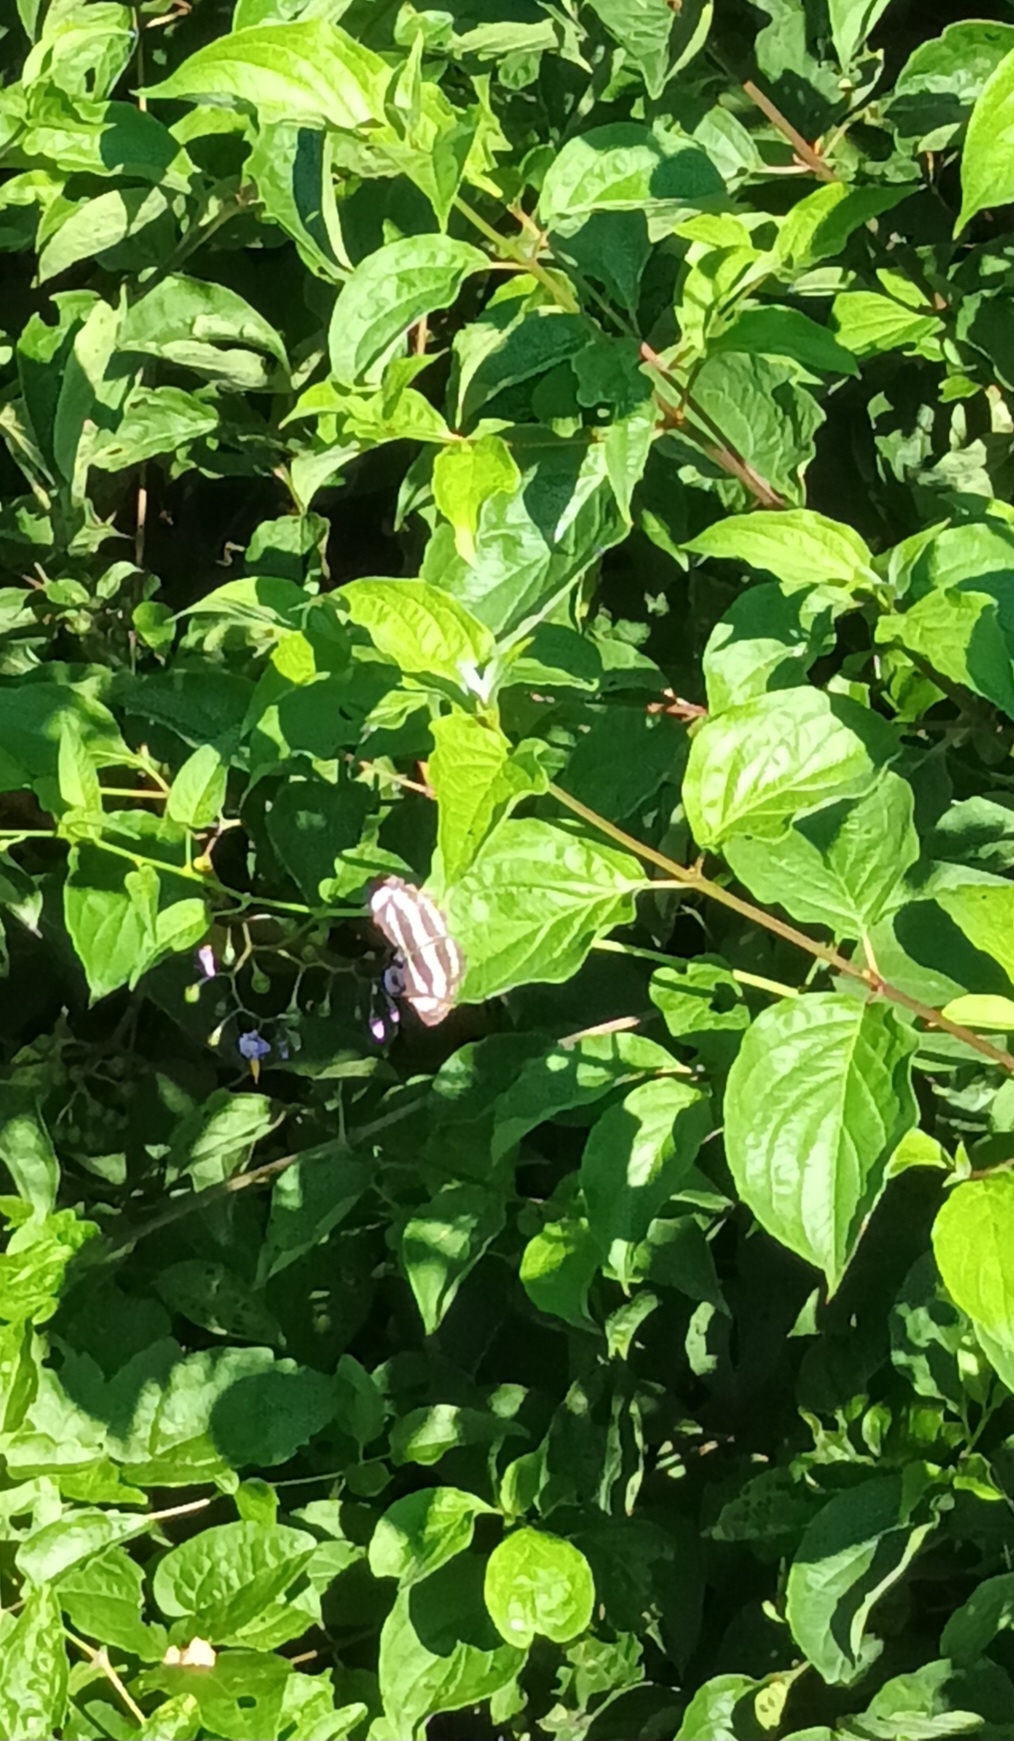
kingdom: Animalia
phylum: Arthropoda
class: Insecta
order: Lepidoptera
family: Nymphalidae
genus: Neptis
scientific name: Neptis sappho
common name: Common glider
